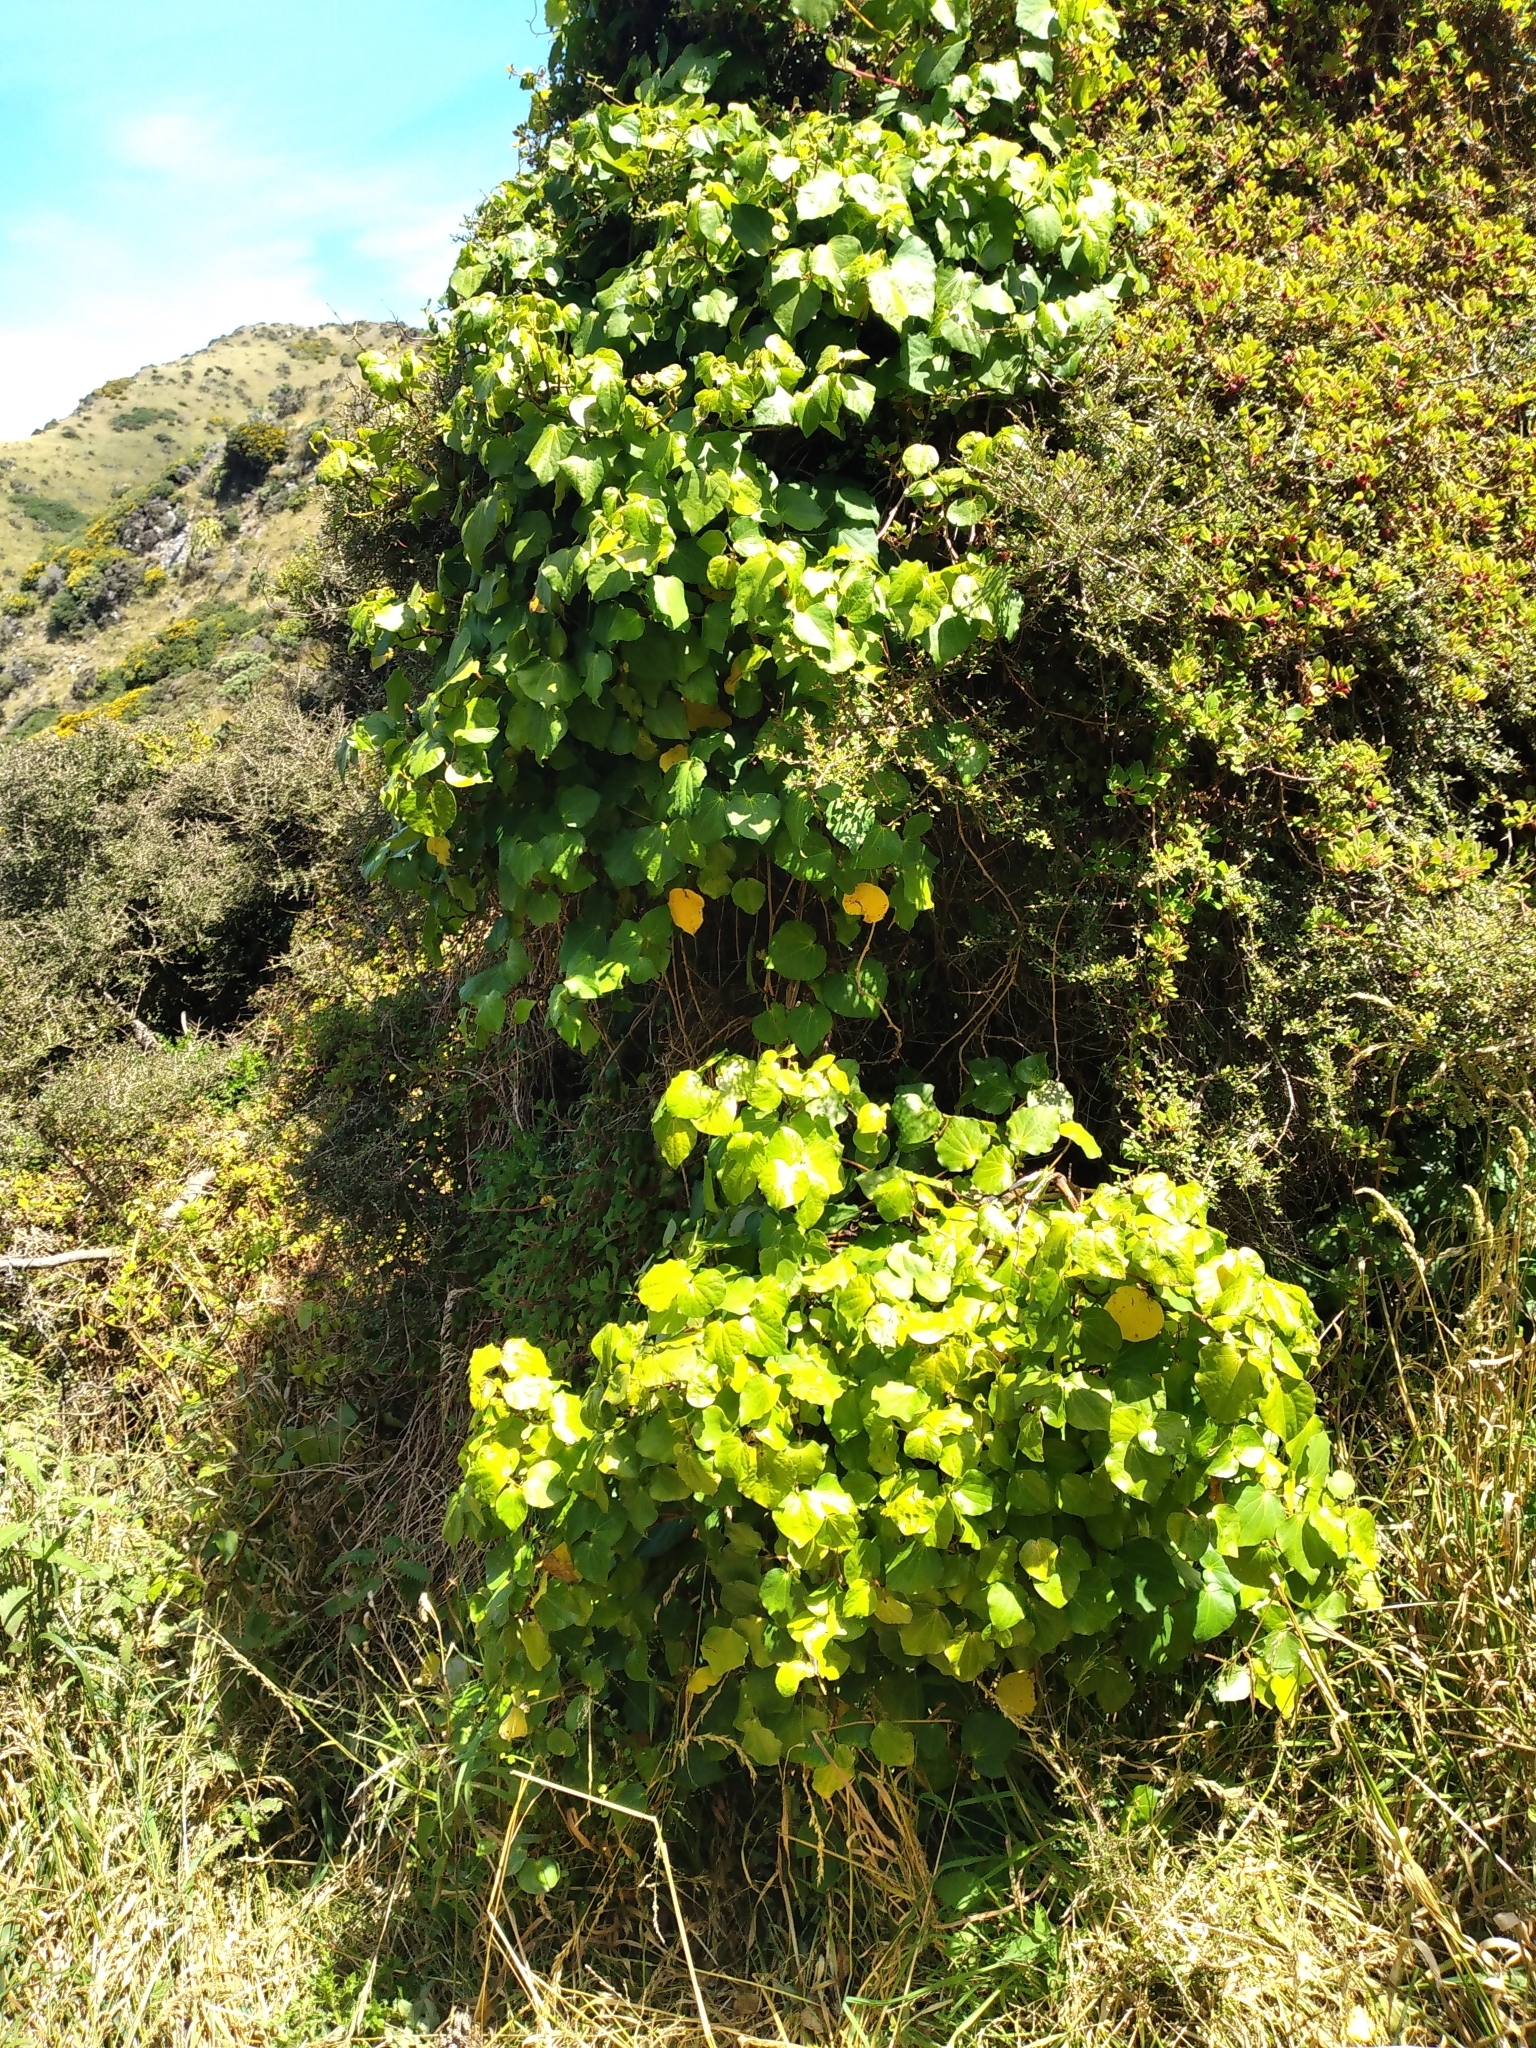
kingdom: Plantae
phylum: Tracheophyta
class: Magnoliopsida
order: Piperales
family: Piperaceae
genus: Macropiper
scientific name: Macropiper excelsum
